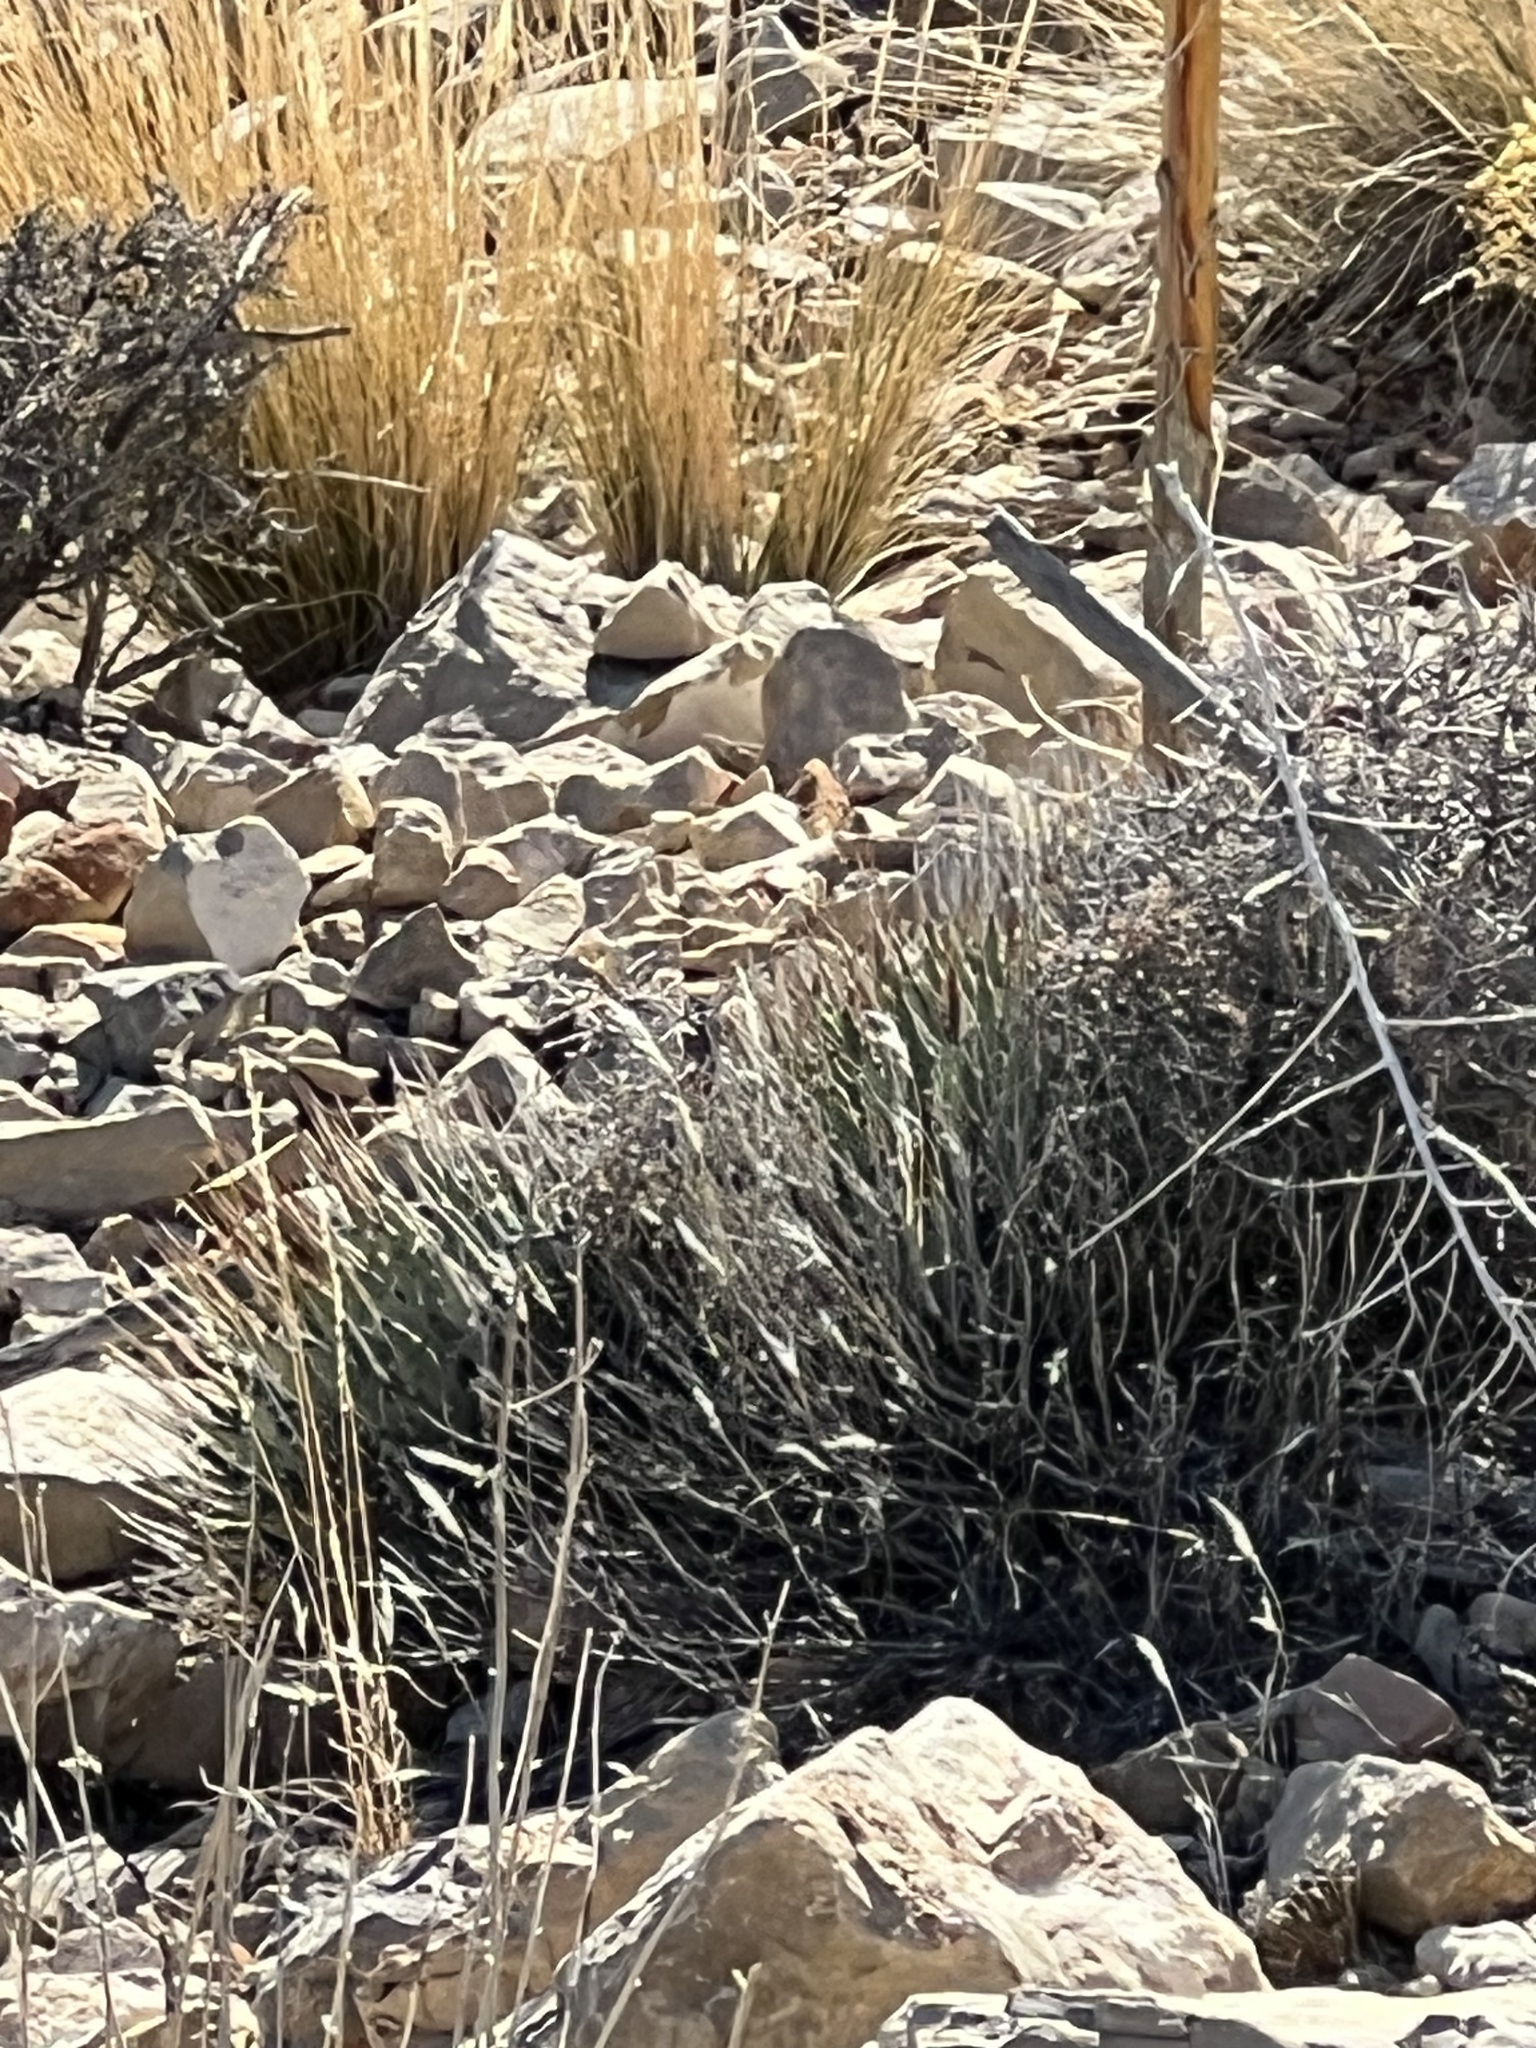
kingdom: Plantae
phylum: Tracheophyta
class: Liliopsida
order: Asparagales
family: Asparagaceae
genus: Agave
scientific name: Agave utahensis
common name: Utah agave
